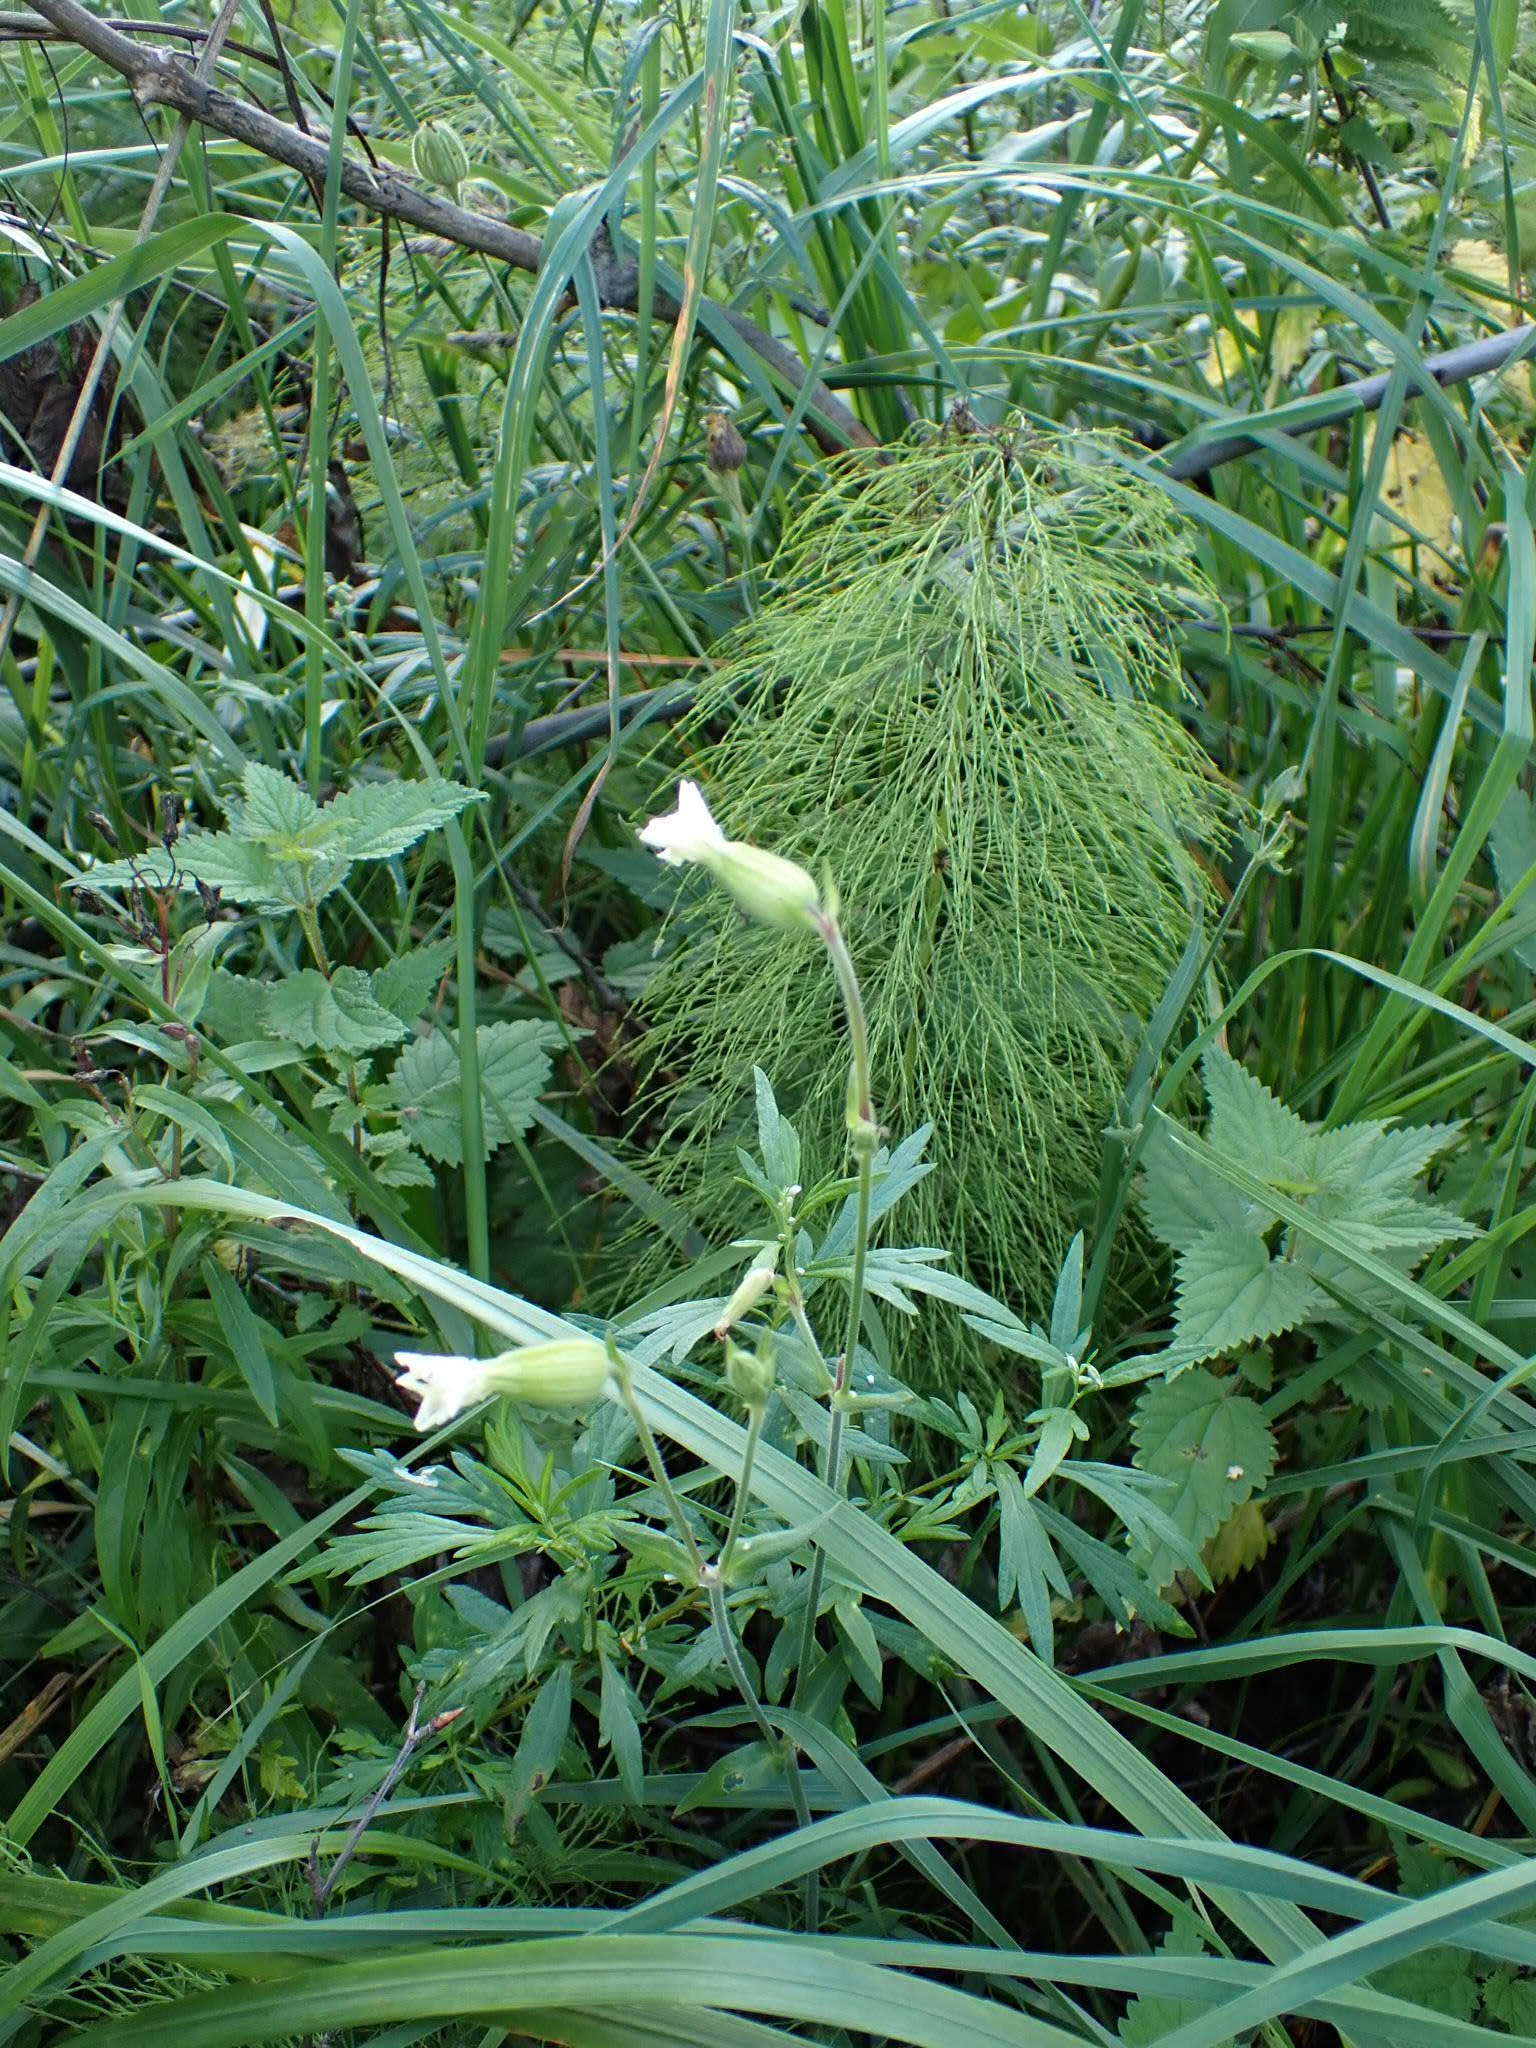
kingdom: Plantae
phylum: Tracheophyta
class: Magnoliopsida
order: Caryophyllales
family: Caryophyllaceae
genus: Silene
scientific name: Silene latifolia
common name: White campion
